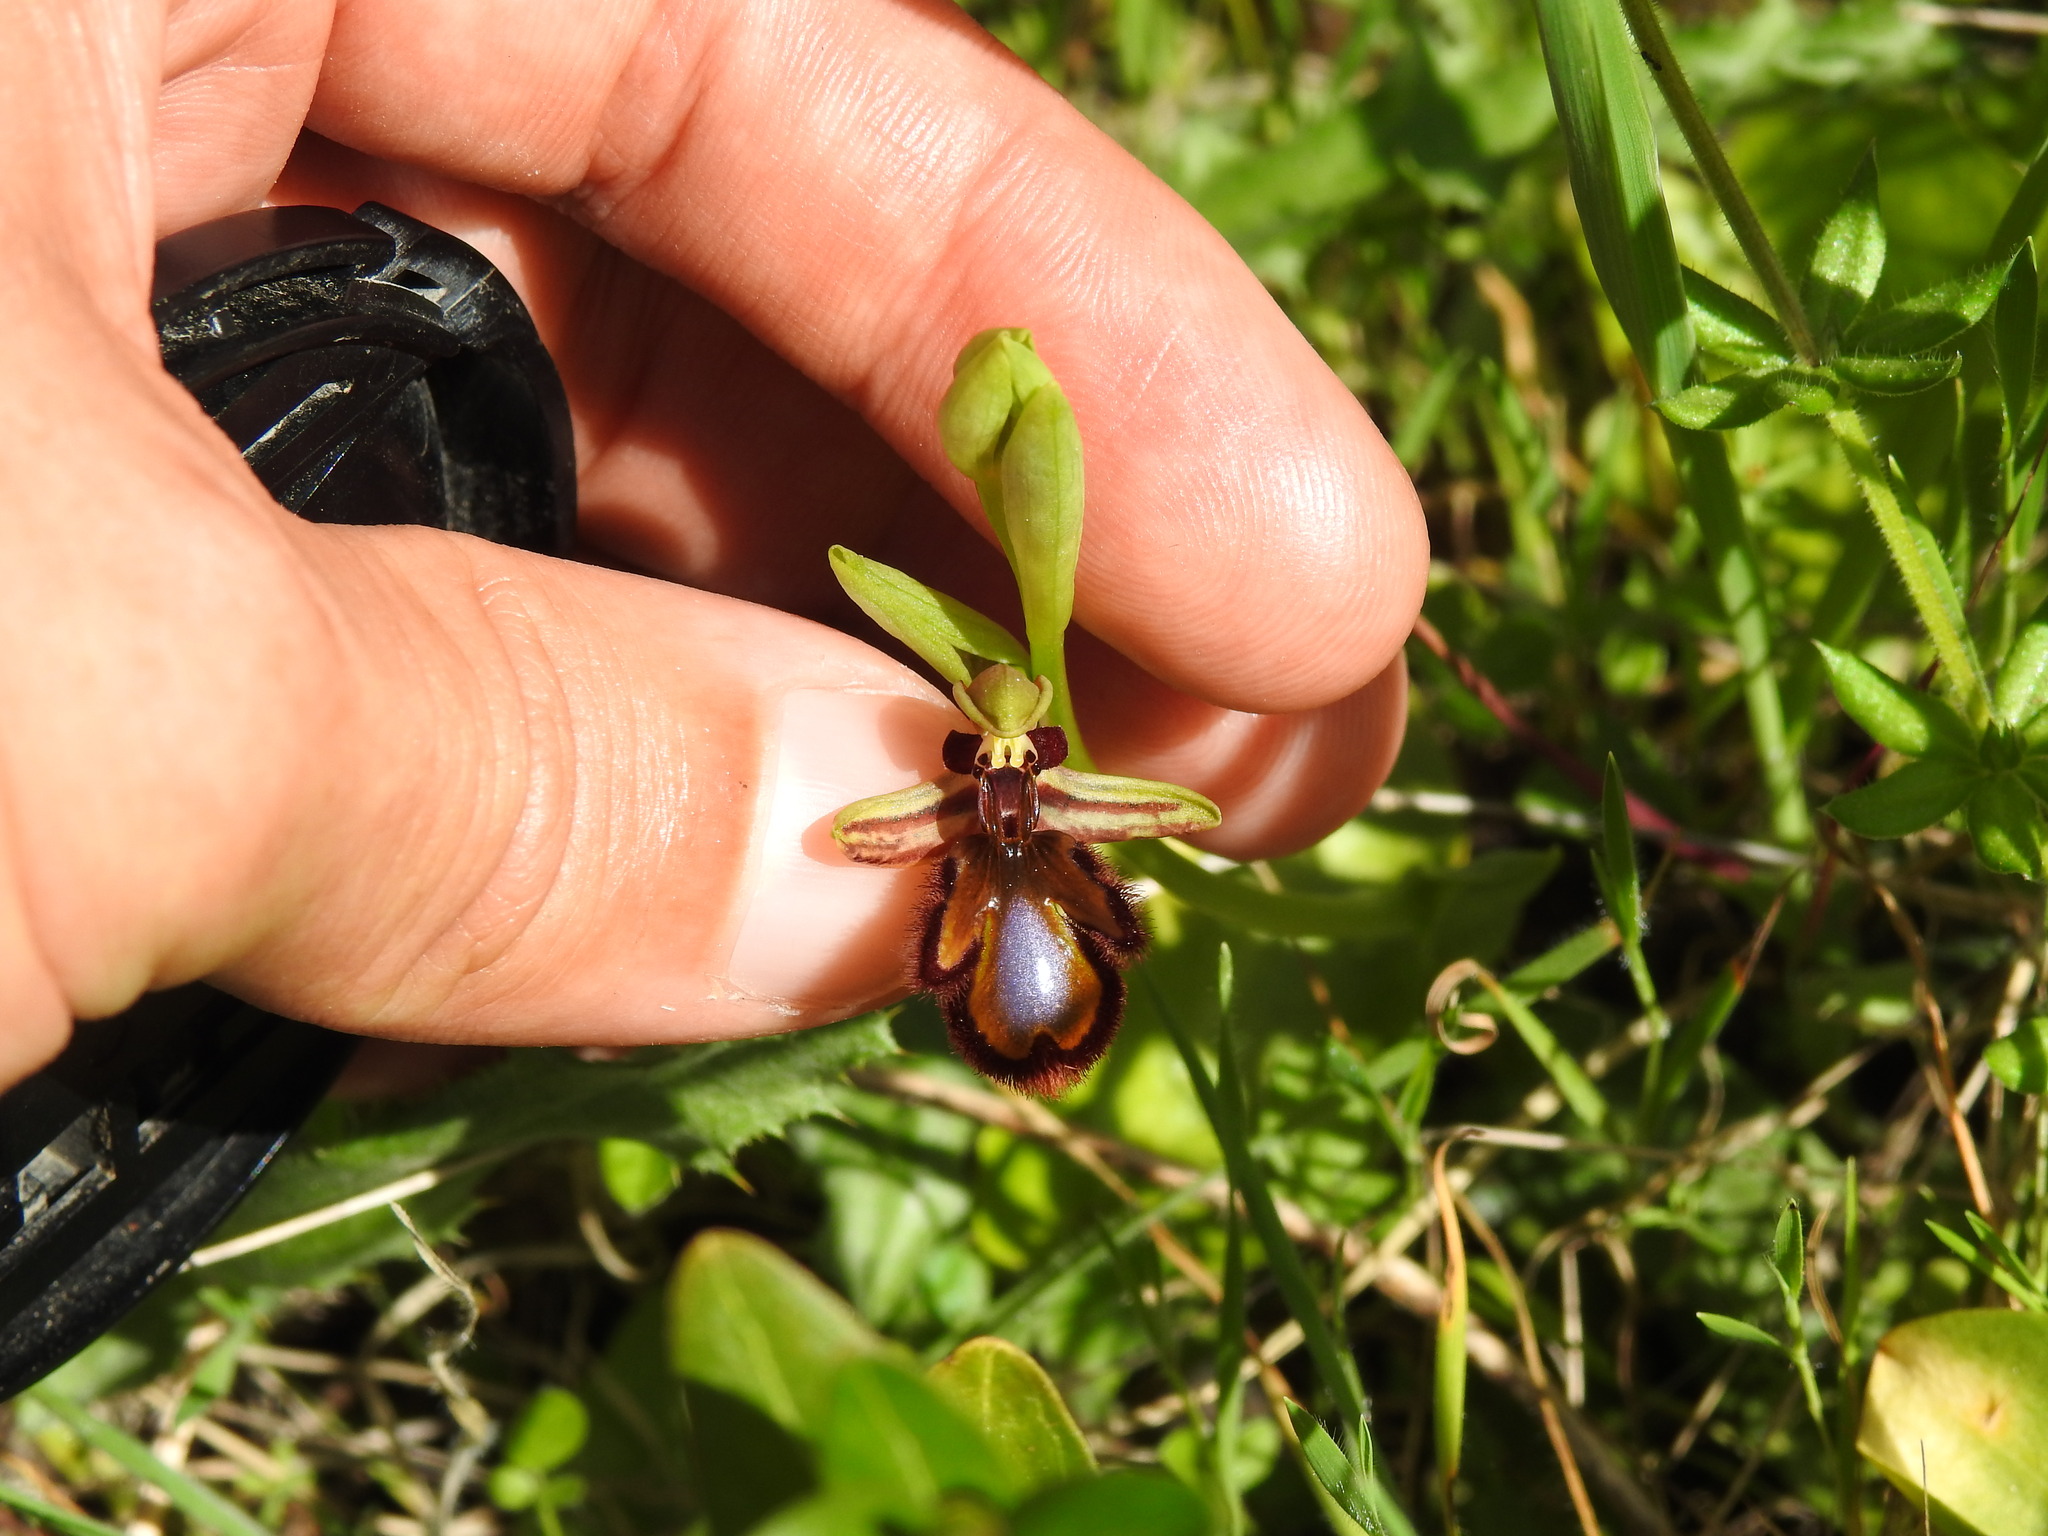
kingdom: Plantae
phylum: Tracheophyta
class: Liliopsida
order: Asparagales
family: Orchidaceae
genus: Ophrys
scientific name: Ophrys speculum
